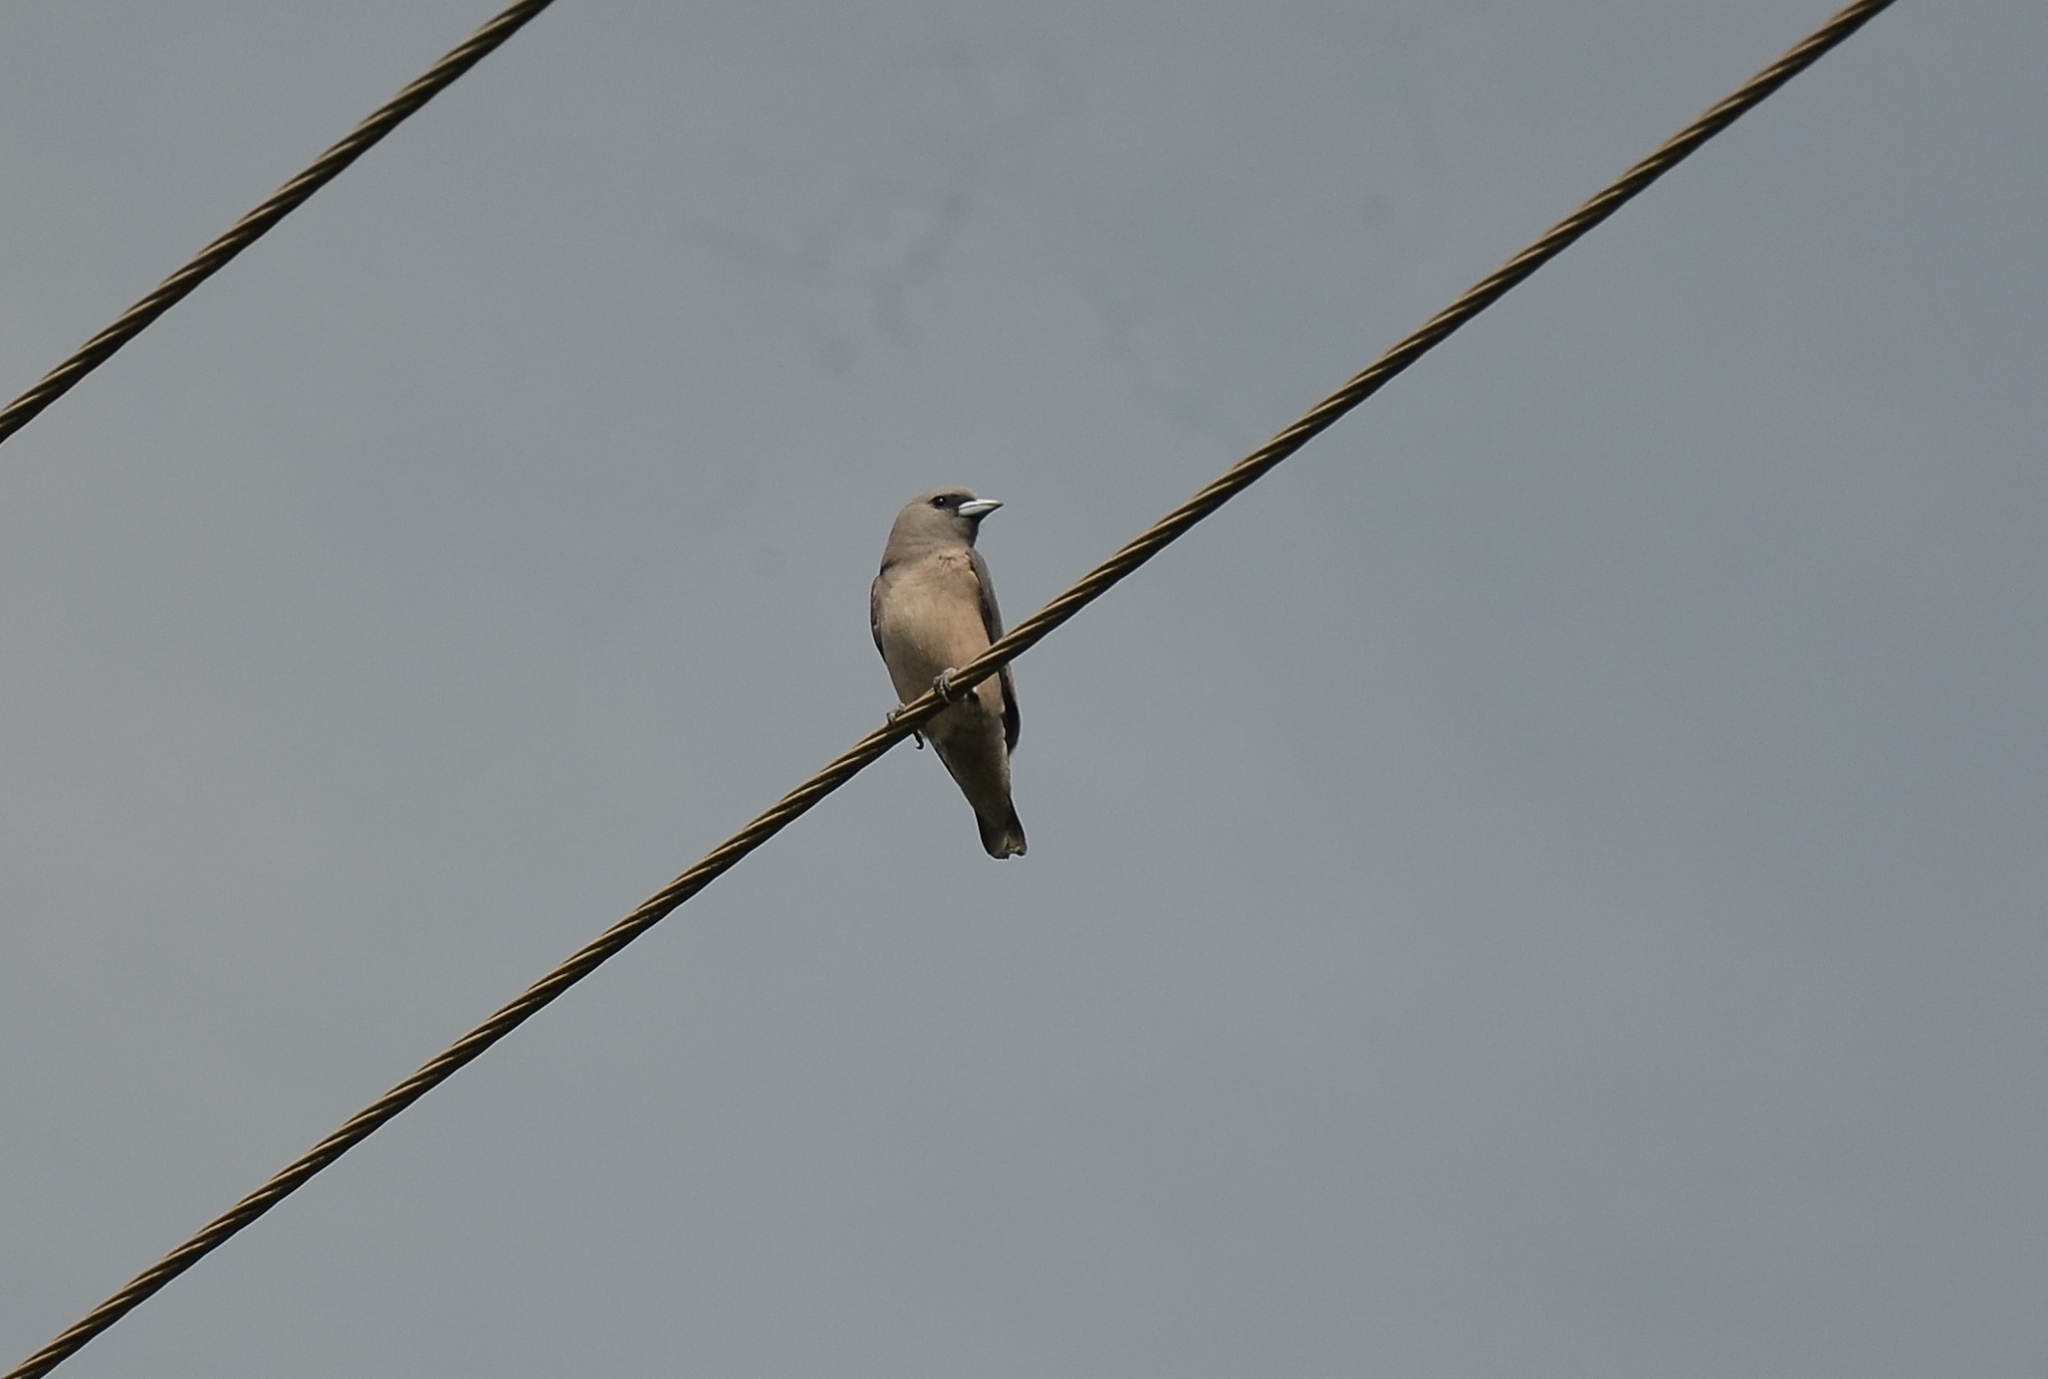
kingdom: Animalia
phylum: Chordata
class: Aves
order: Passeriformes
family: Artamidae
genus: Artamus
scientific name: Artamus fuscus
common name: Ashy woodswallow
